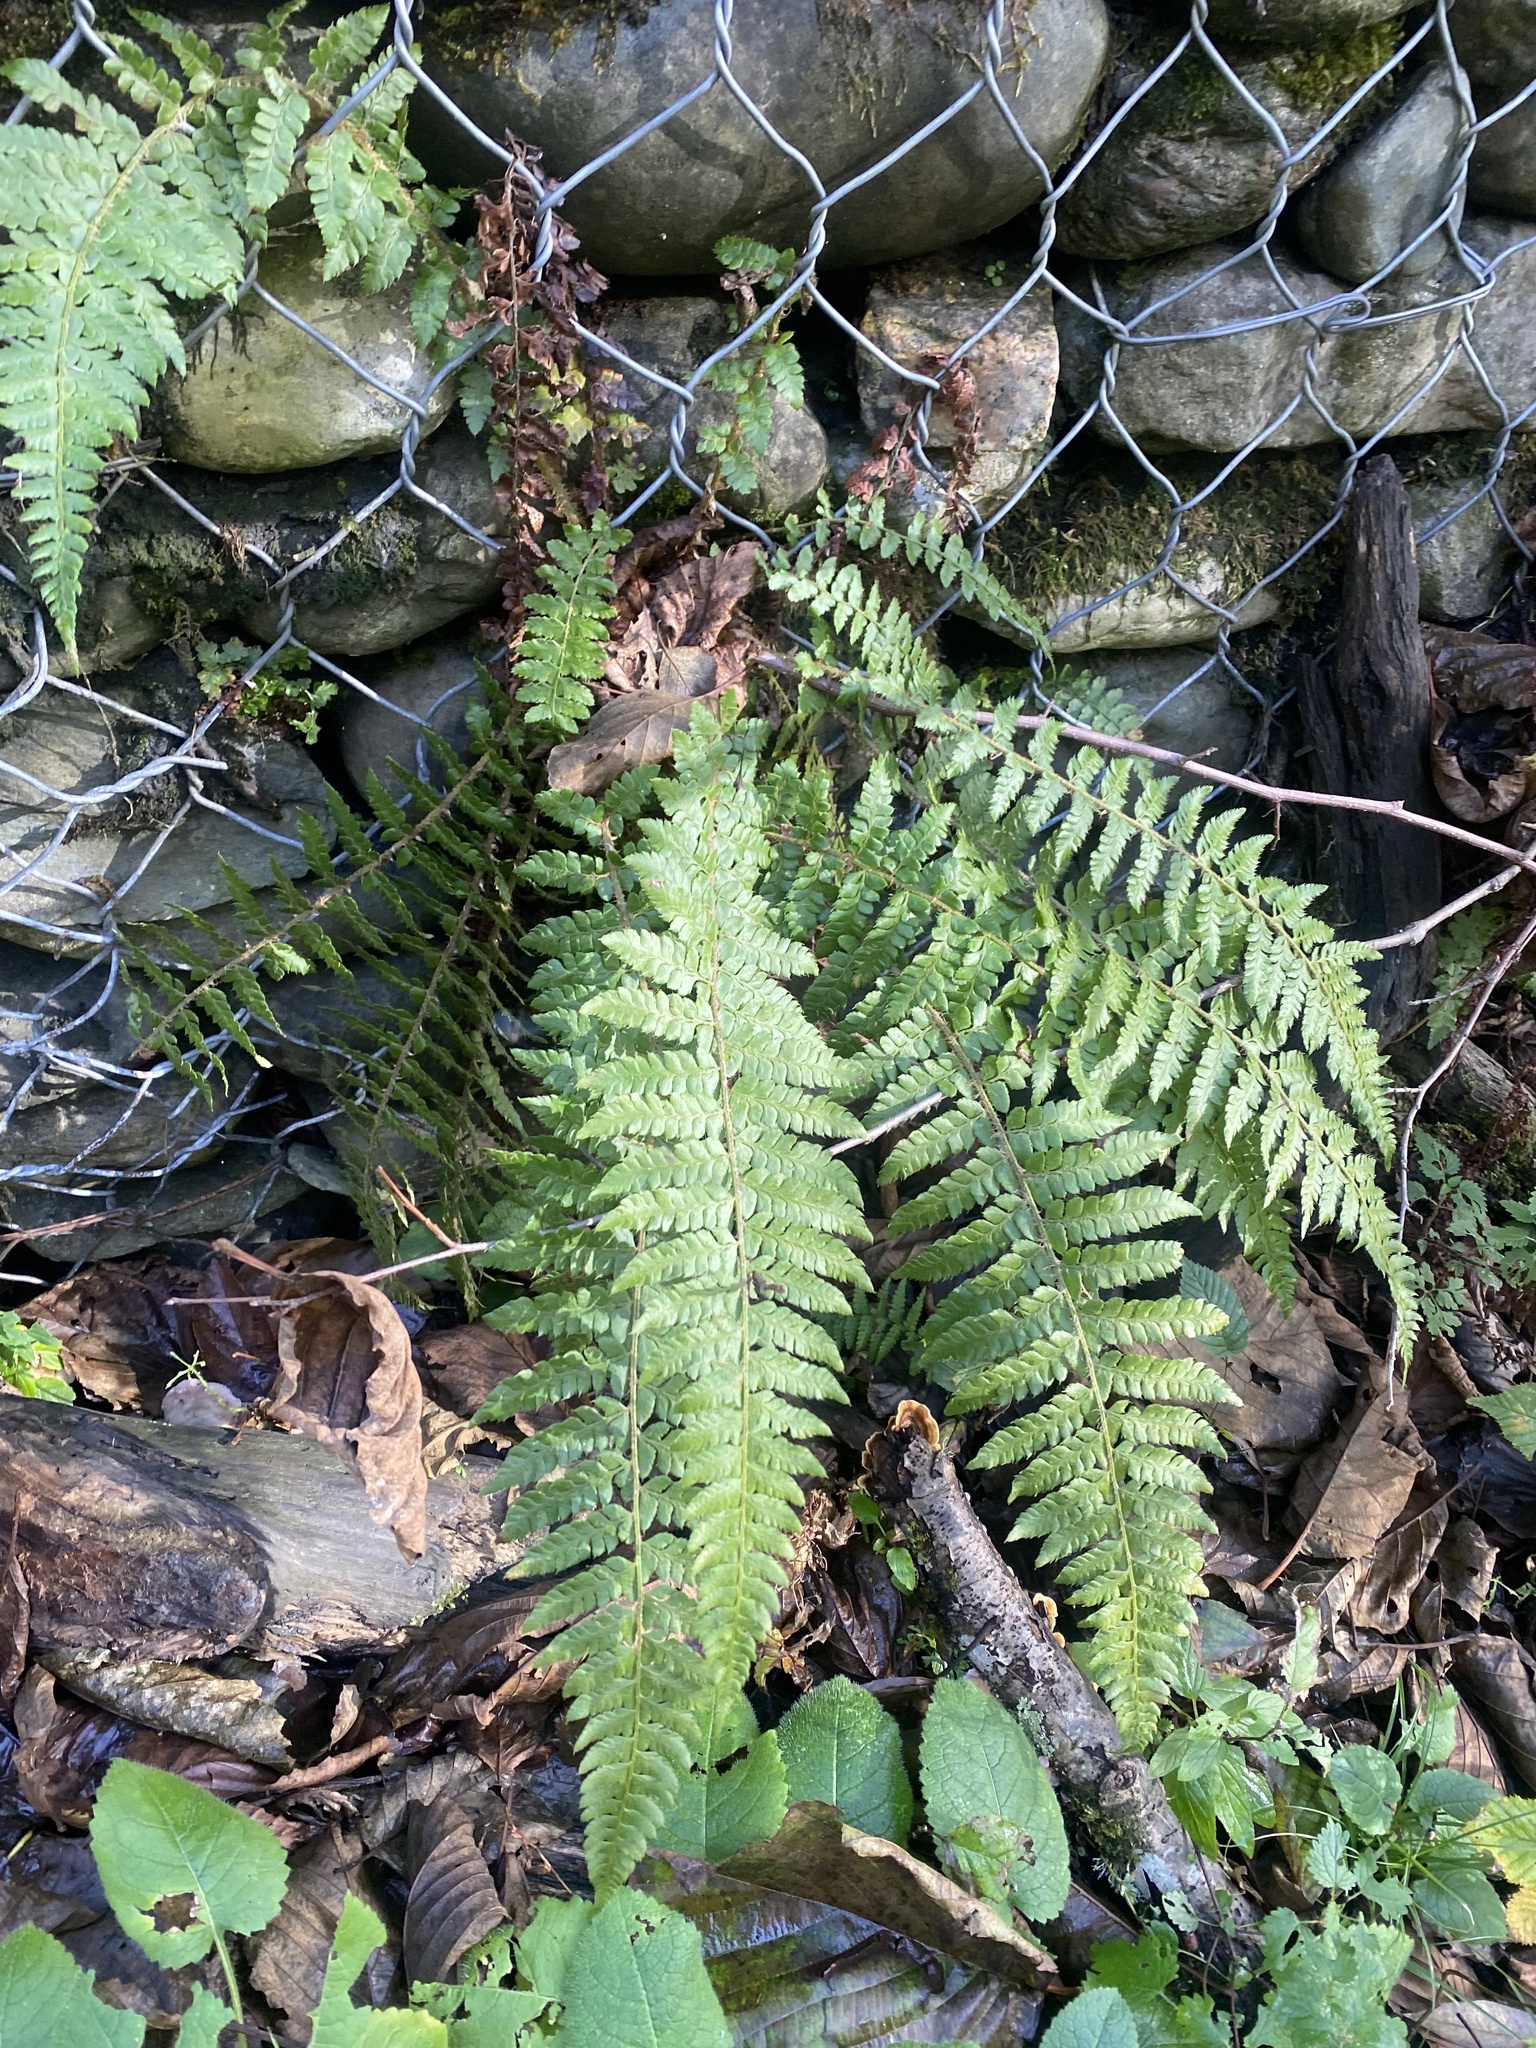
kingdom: Plantae
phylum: Tracheophyta
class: Polypodiopsida
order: Polypodiales
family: Dryopteridaceae
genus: Polystichum
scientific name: Polystichum braunii
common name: Braun's holly fern
